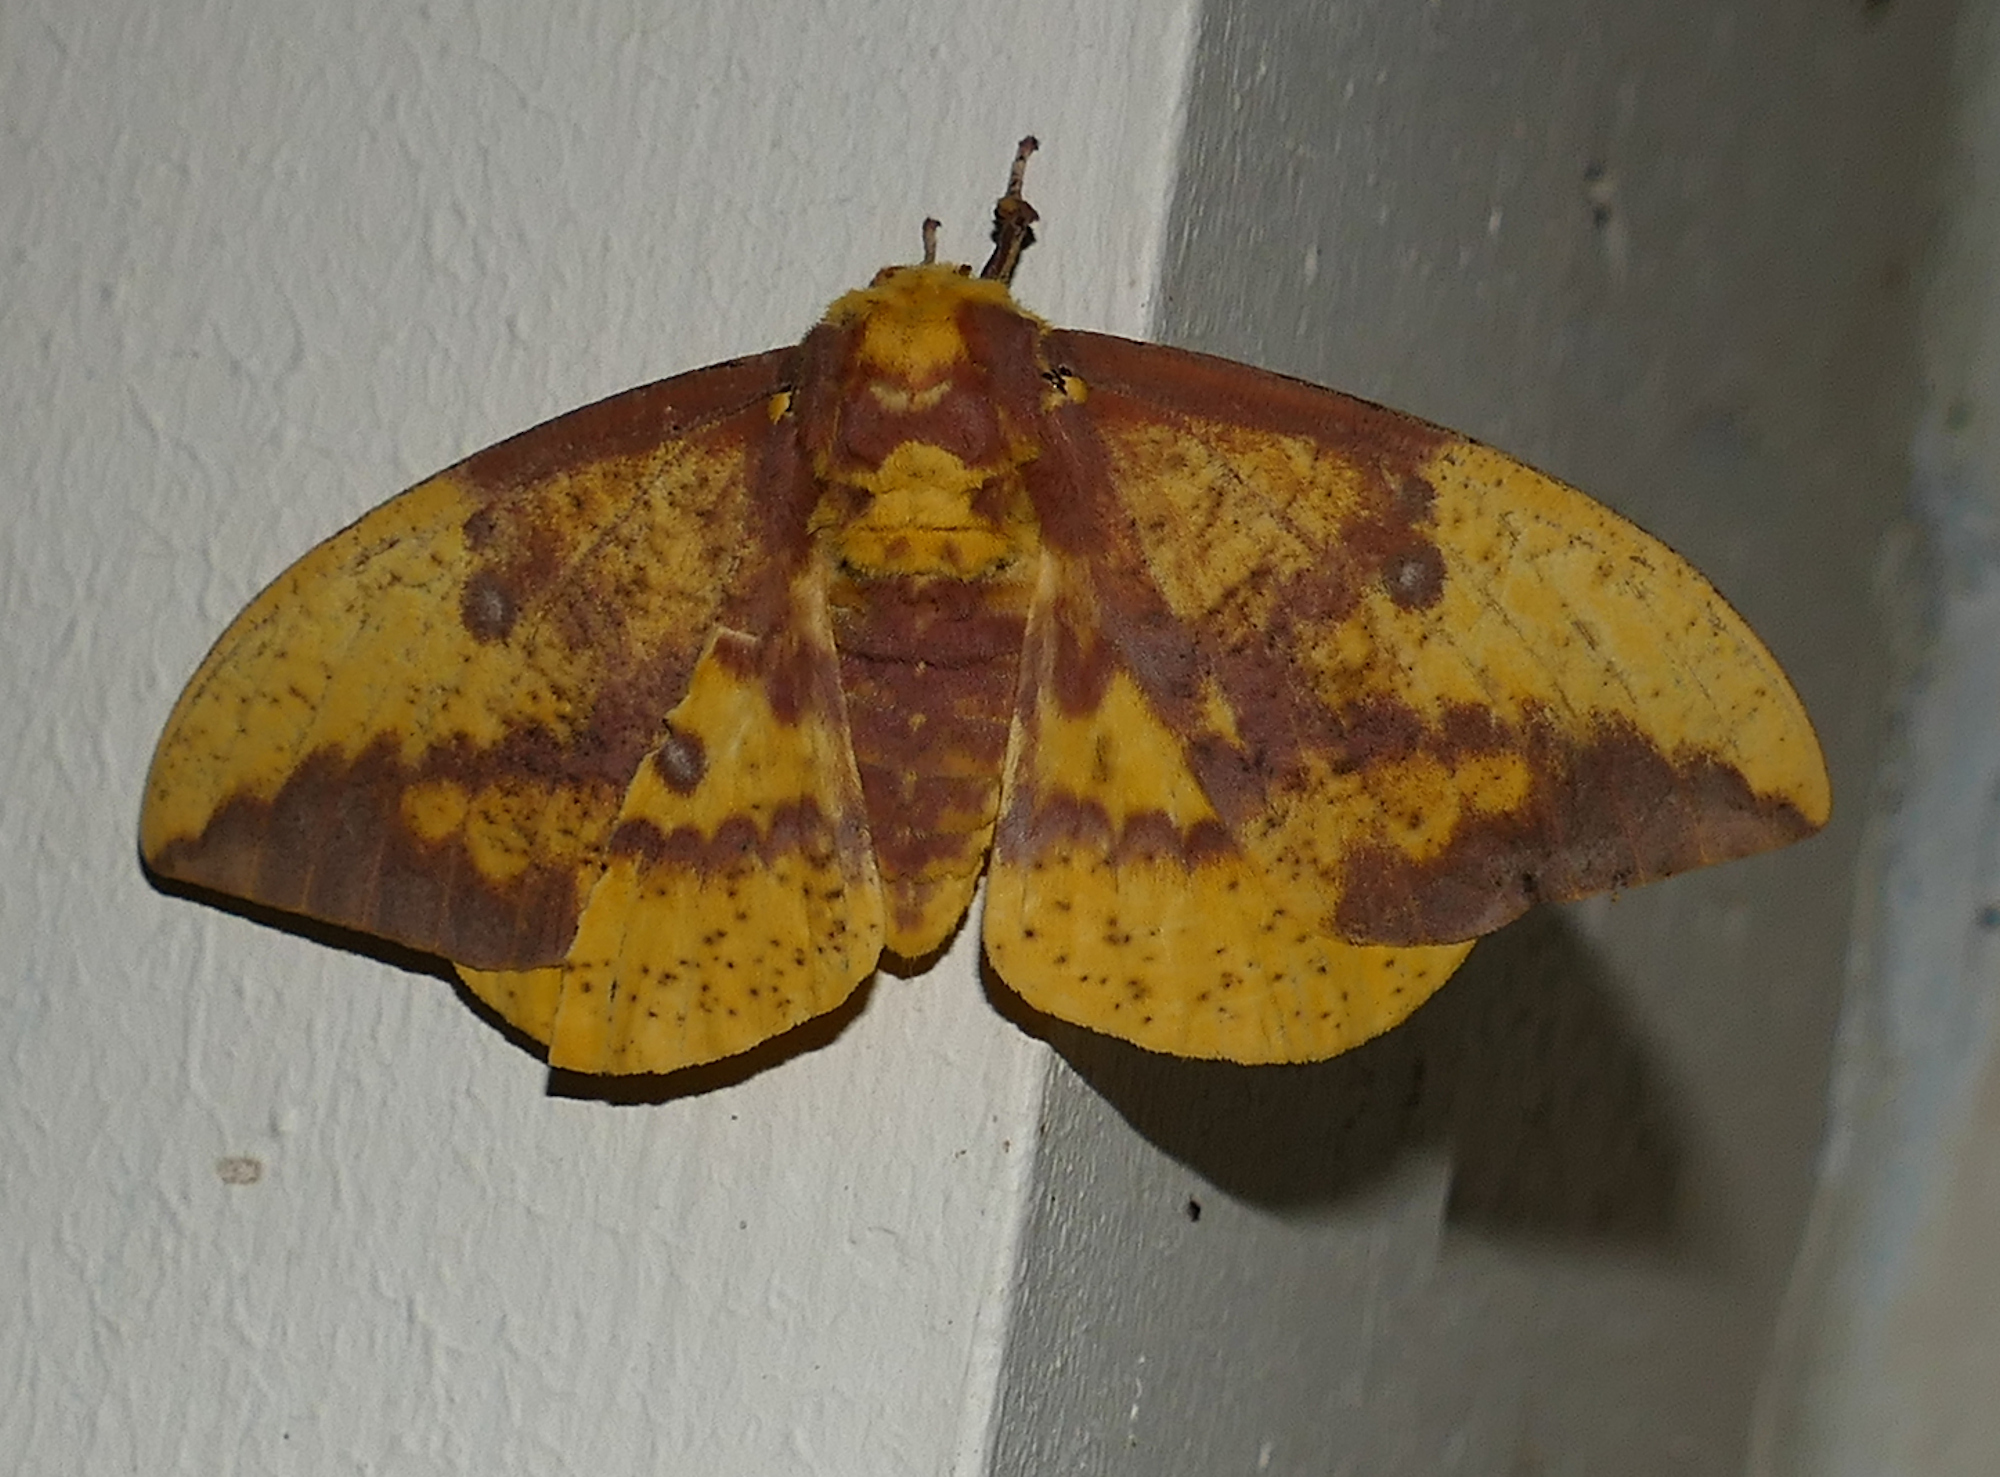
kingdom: Animalia
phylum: Arthropoda
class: Insecta
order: Lepidoptera
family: Saturniidae
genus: Eacles
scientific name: Eacles imperialis
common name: Imperial moth
